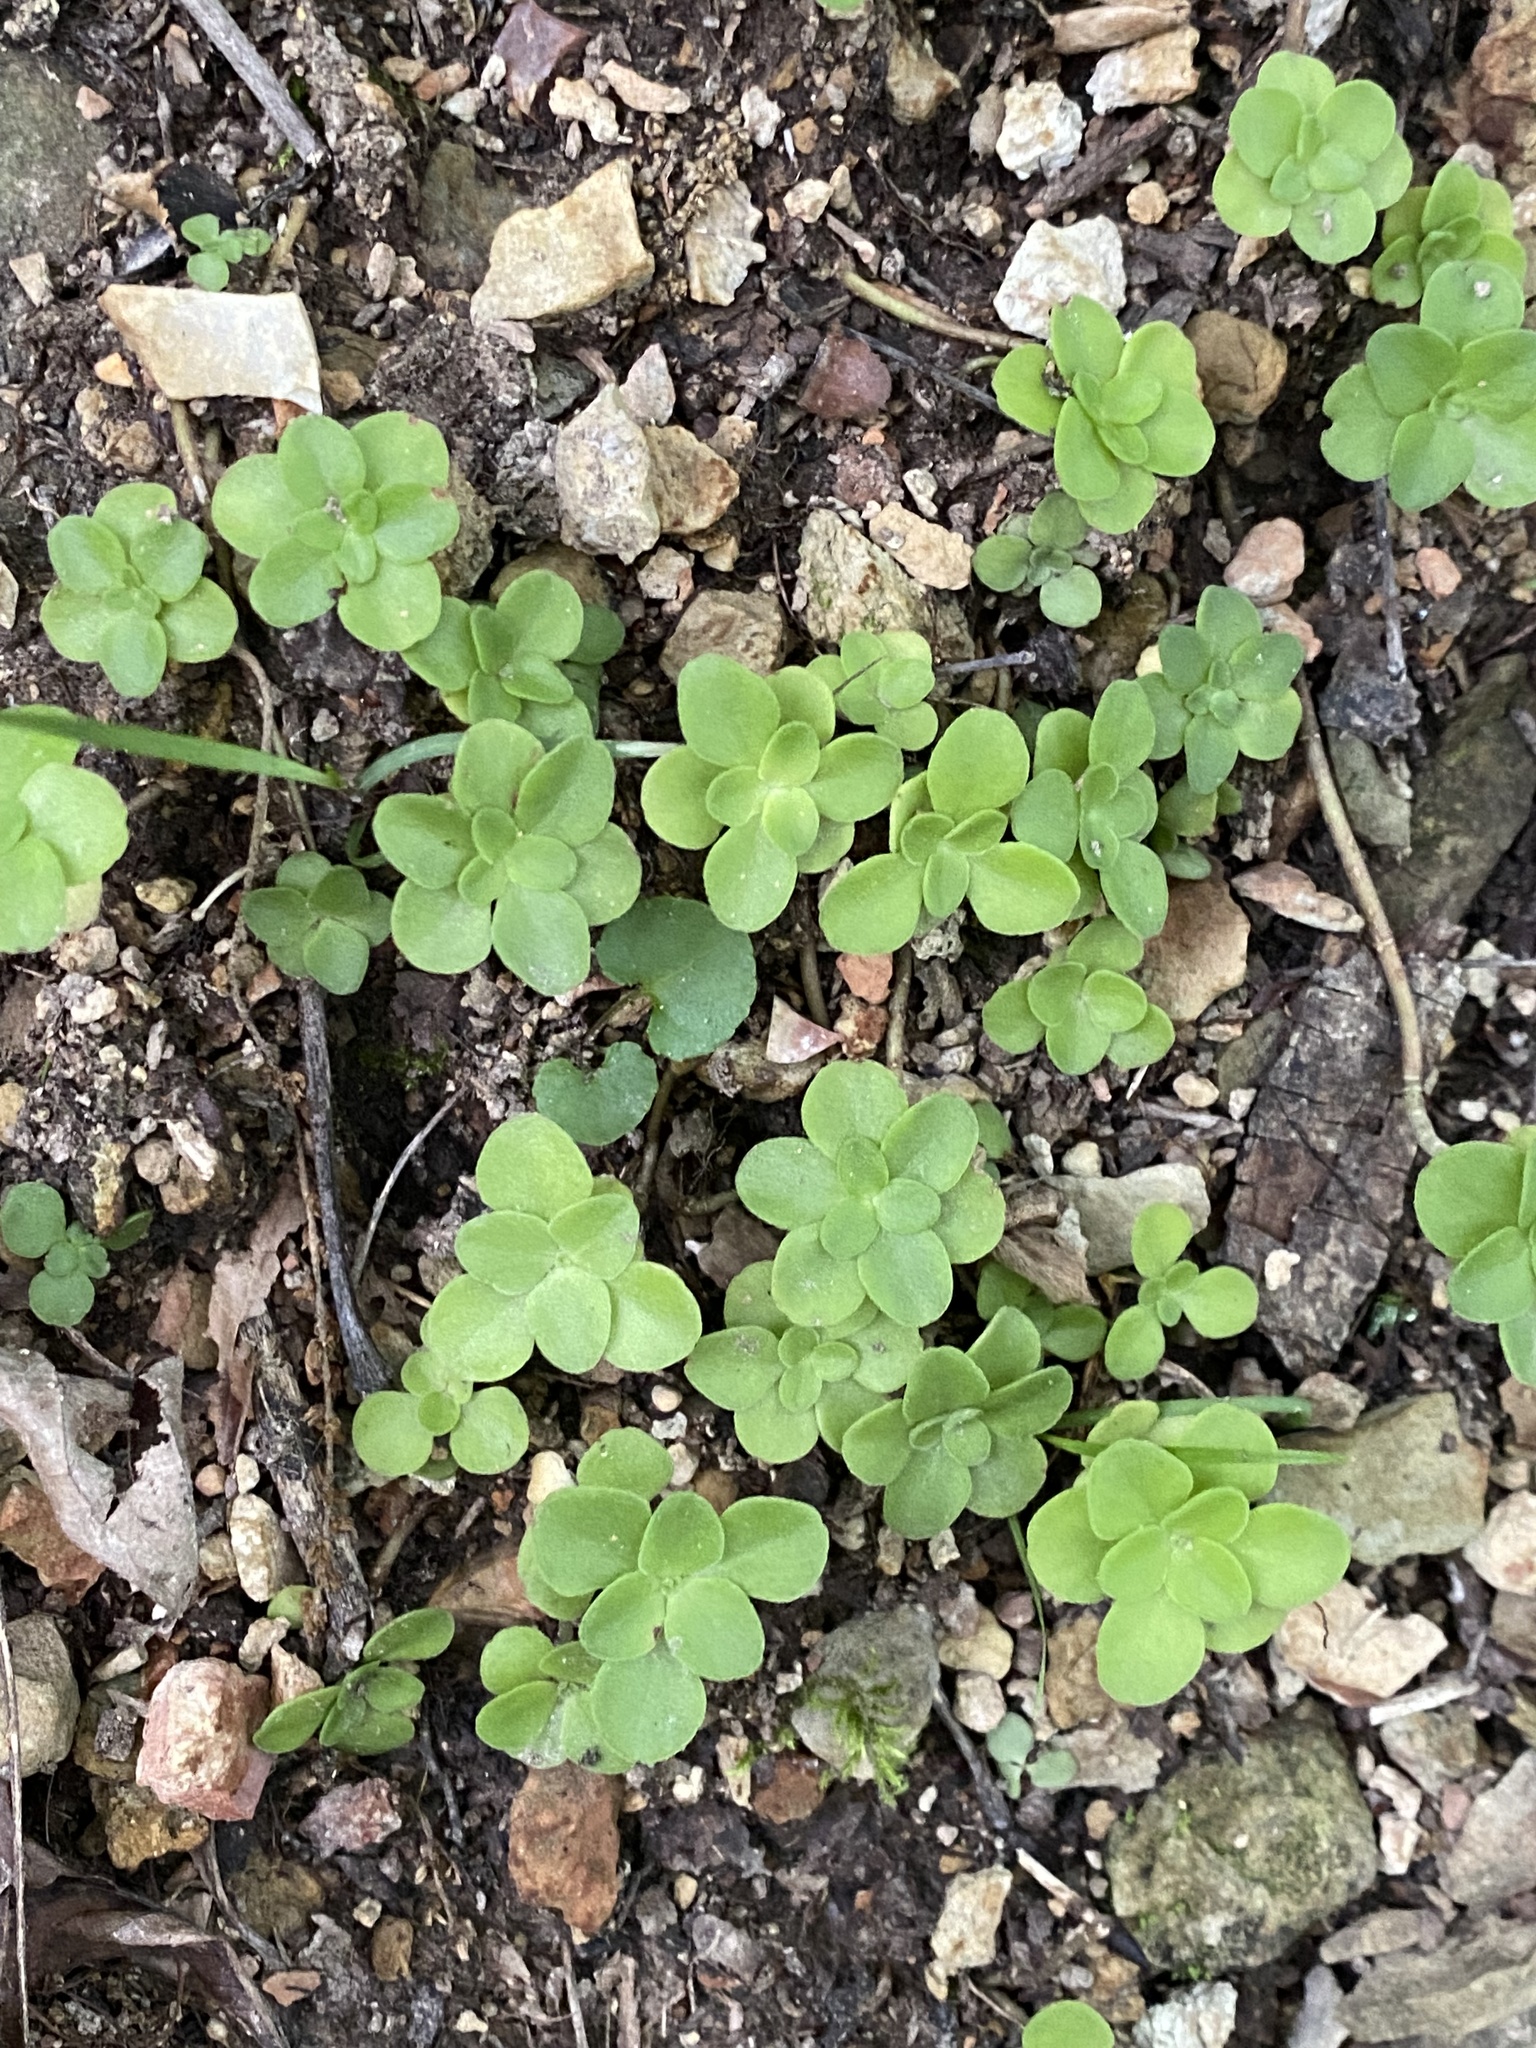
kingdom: Plantae
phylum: Tracheophyta
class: Magnoliopsida
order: Saxifragales
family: Crassulaceae
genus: Sedum
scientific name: Sedum ternatum
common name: Wild stonecrop
